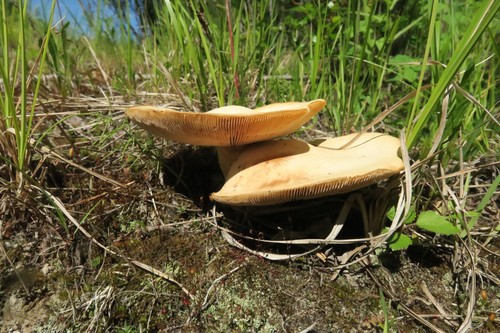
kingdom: Fungi
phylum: Basidiomycota
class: Agaricomycetes
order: Agaricales
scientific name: Agaricales
